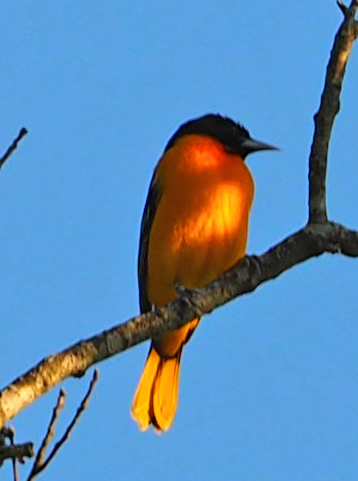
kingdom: Animalia
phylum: Chordata
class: Aves
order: Passeriformes
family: Icteridae
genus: Icterus
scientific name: Icterus galbula
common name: Baltimore oriole
